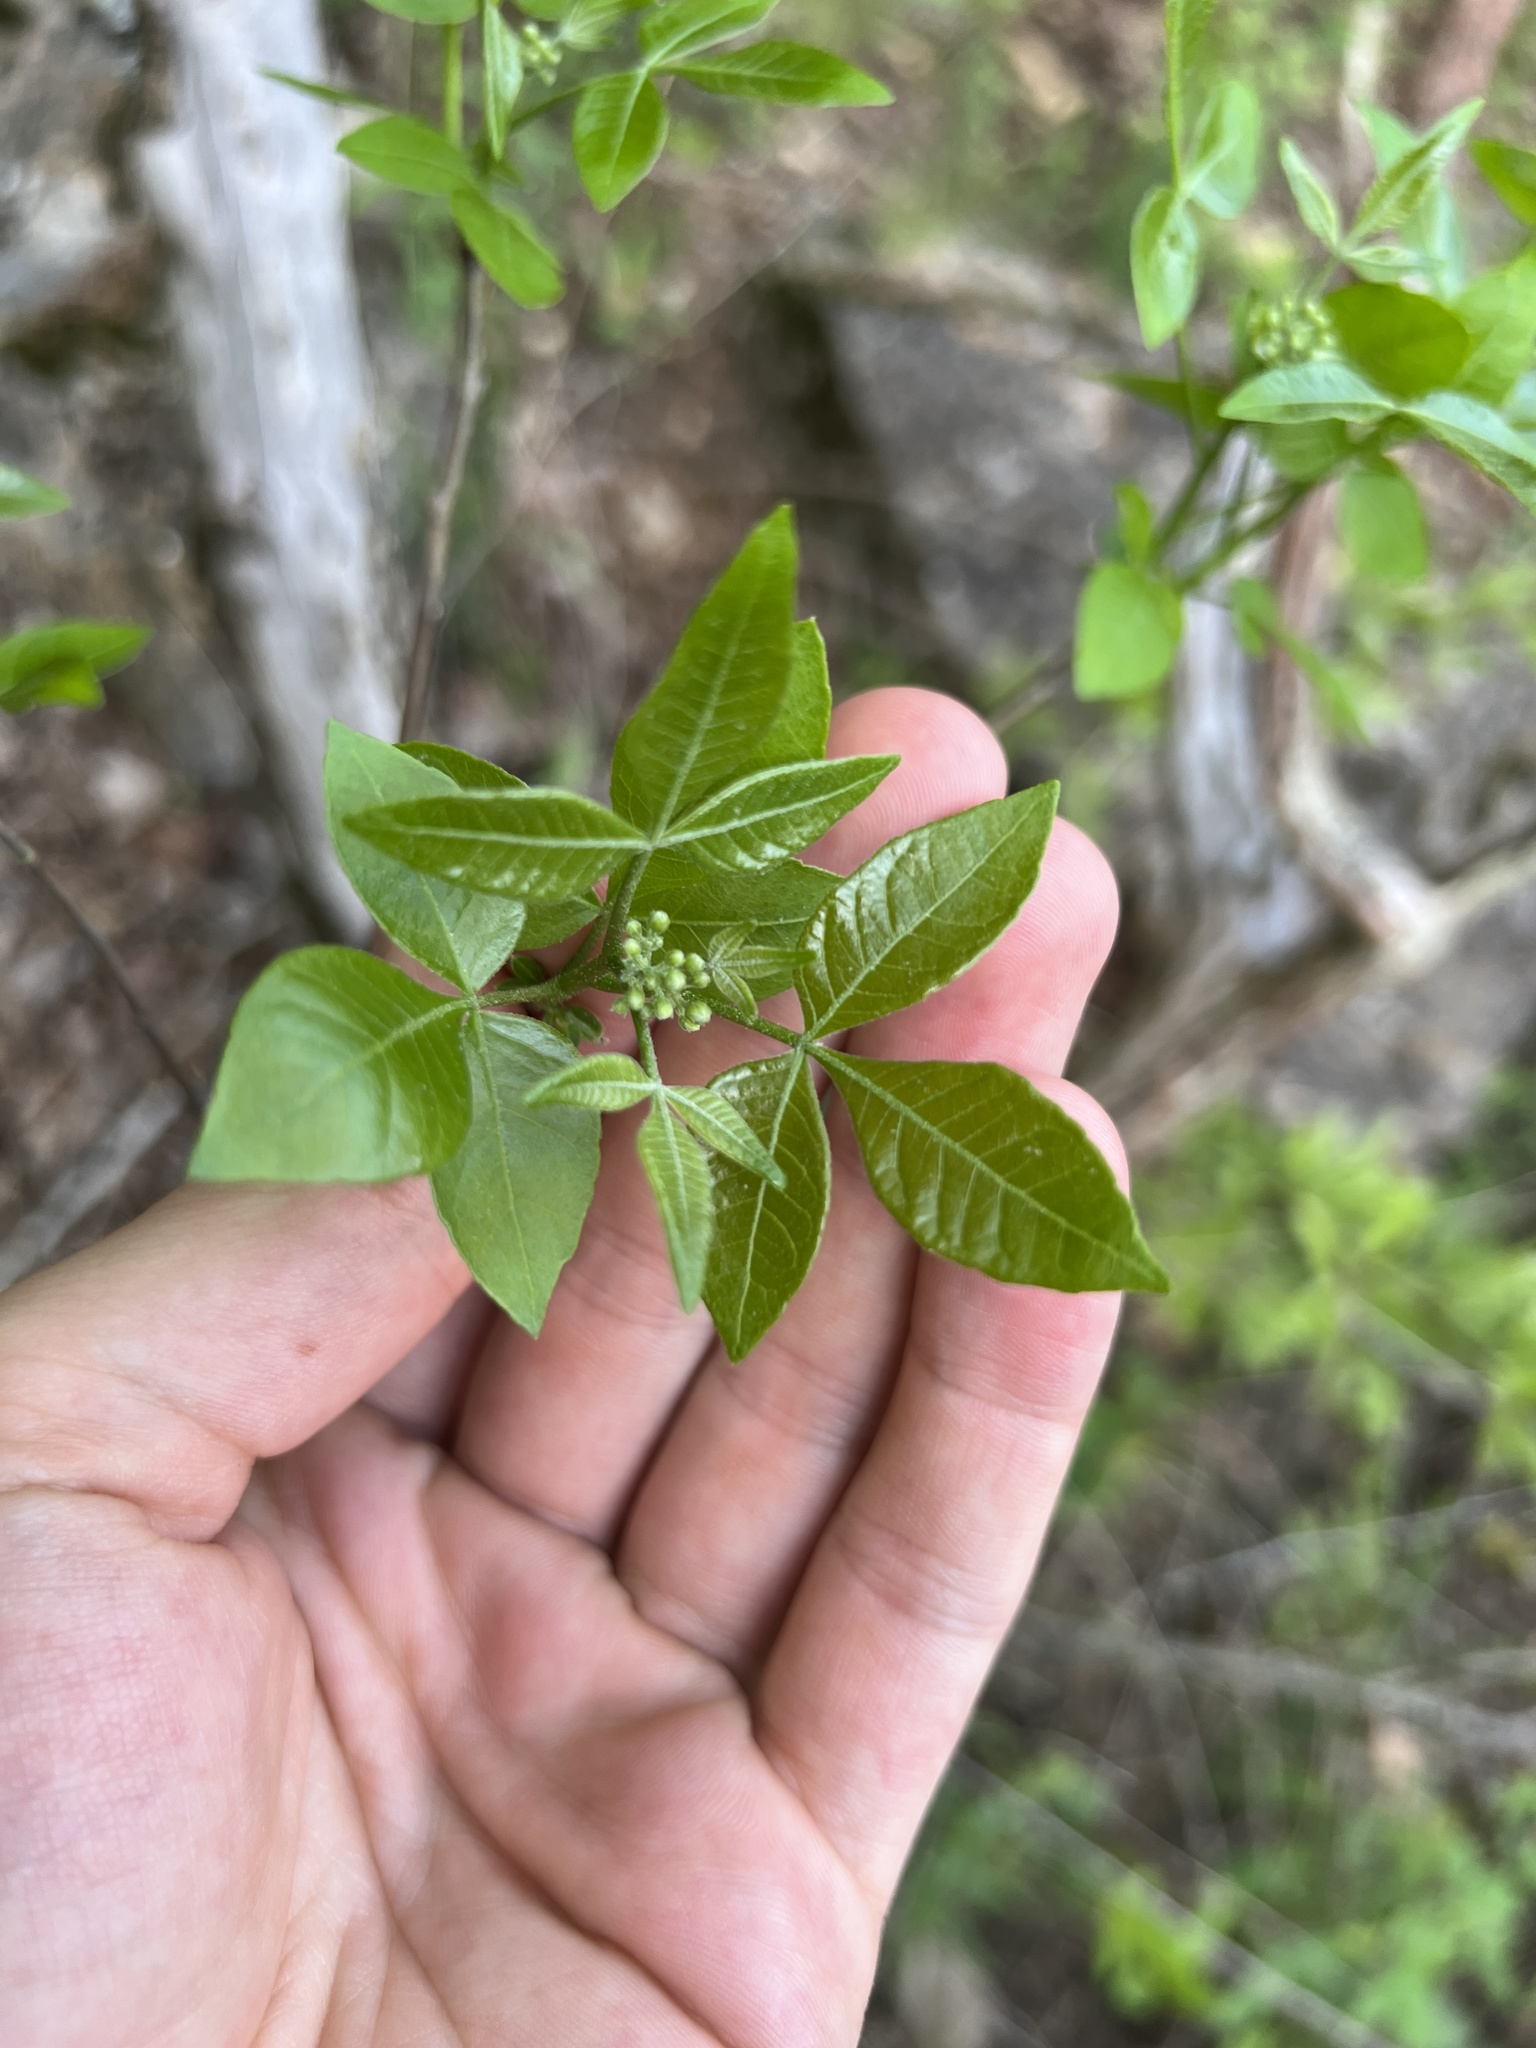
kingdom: Plantae
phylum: Tracheophyta
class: Magnoliopsida
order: Sapindales
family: Rutaceae
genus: Ptelea
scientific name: Ptelea trifoliata
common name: Common hop-tree
